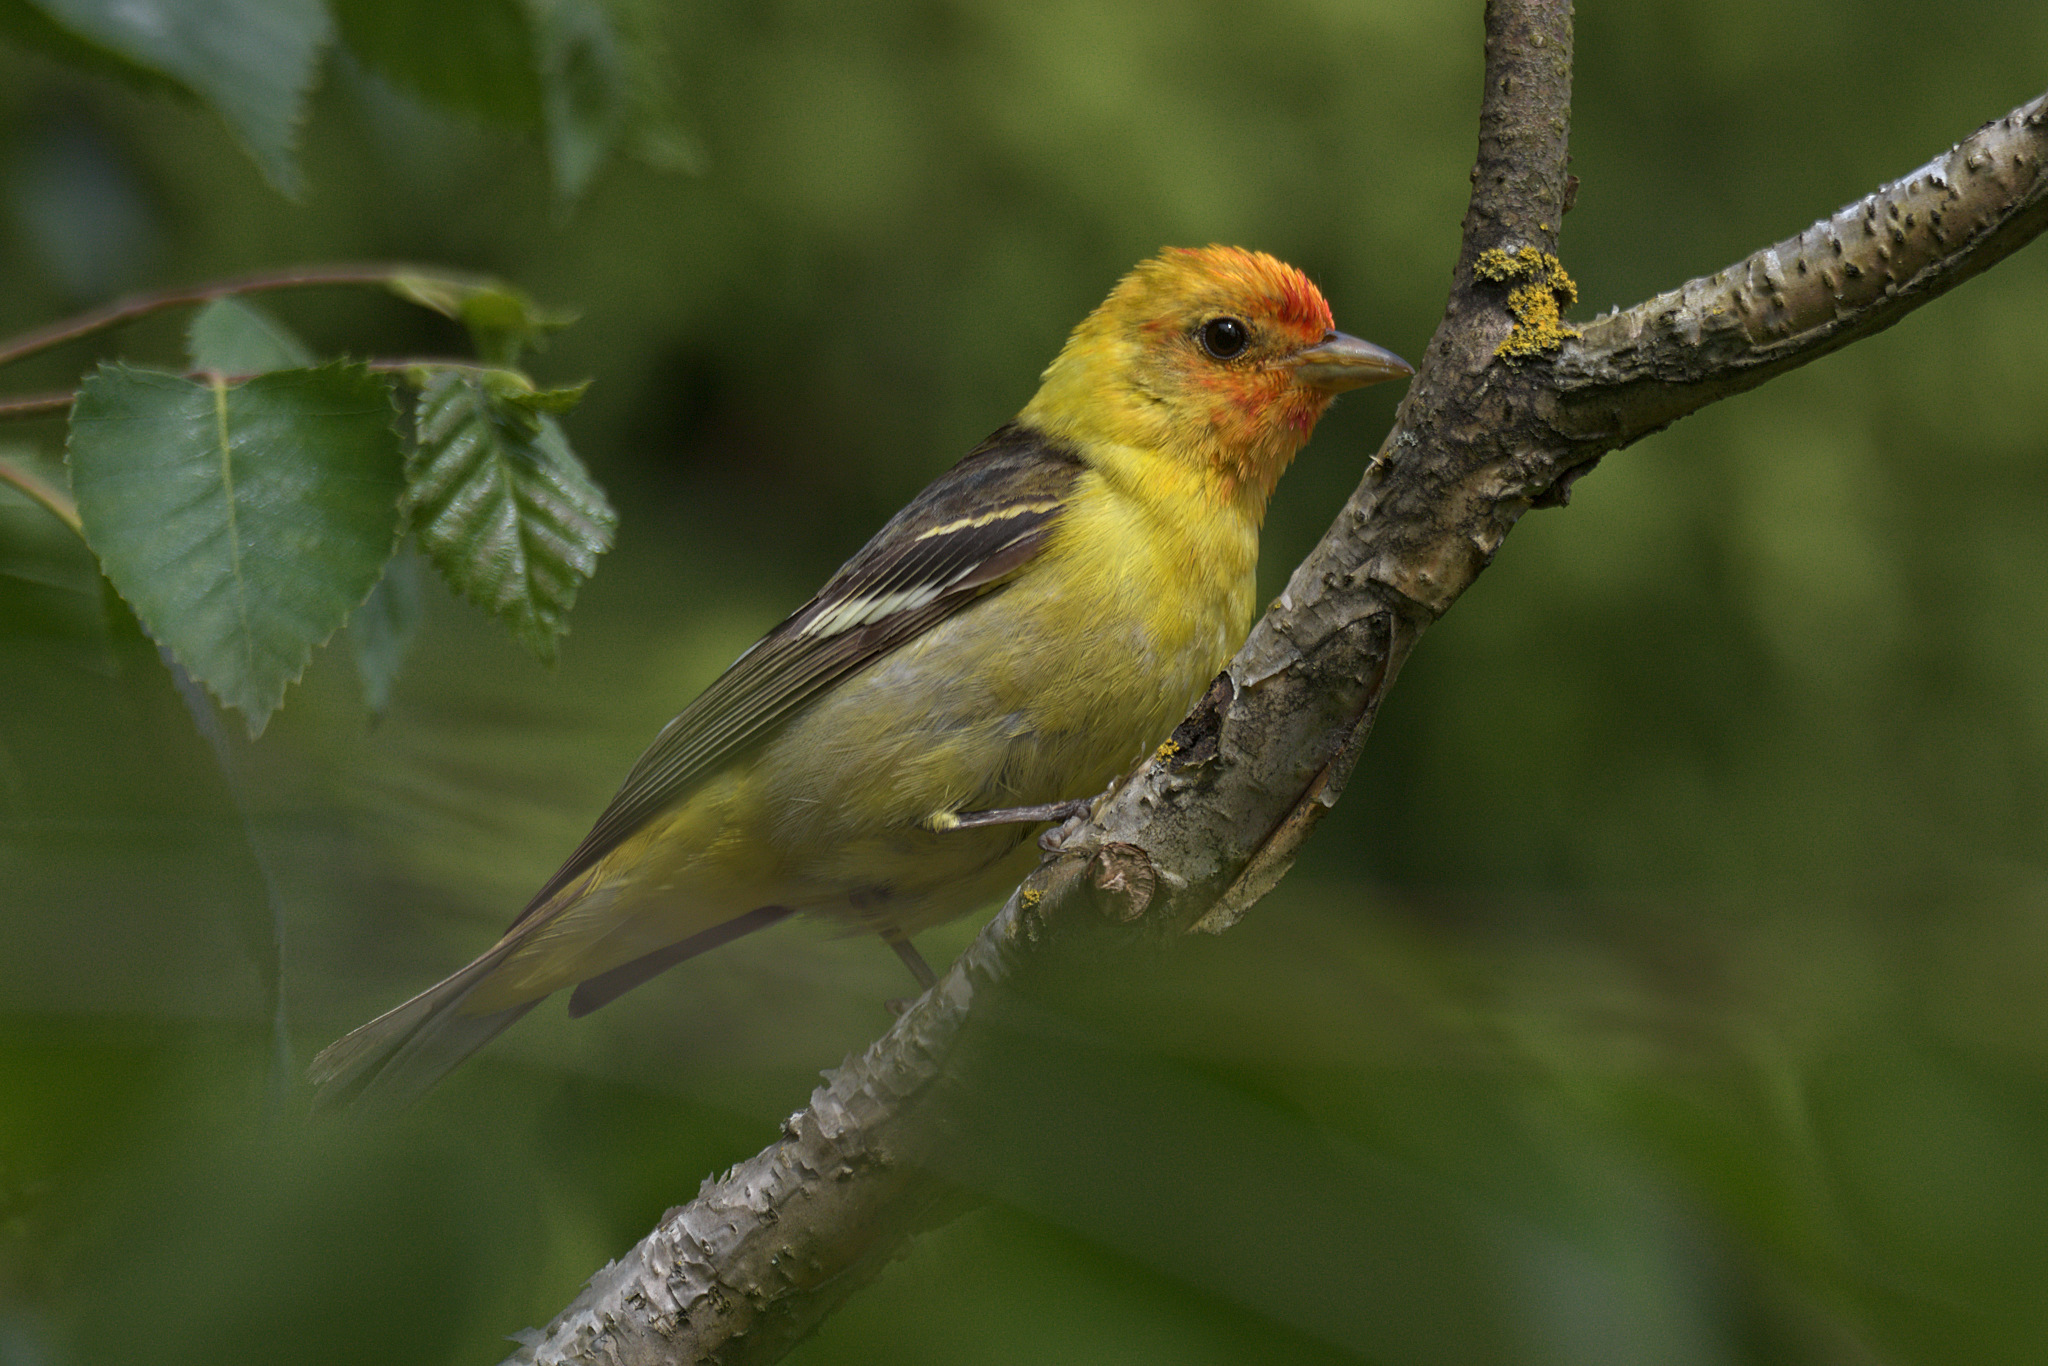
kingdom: Animalia
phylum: Chordata
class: Aves
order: Passeriformes
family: Cardinalidae
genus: Piranga
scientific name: Piranga ludoviciana
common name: Western tanager
